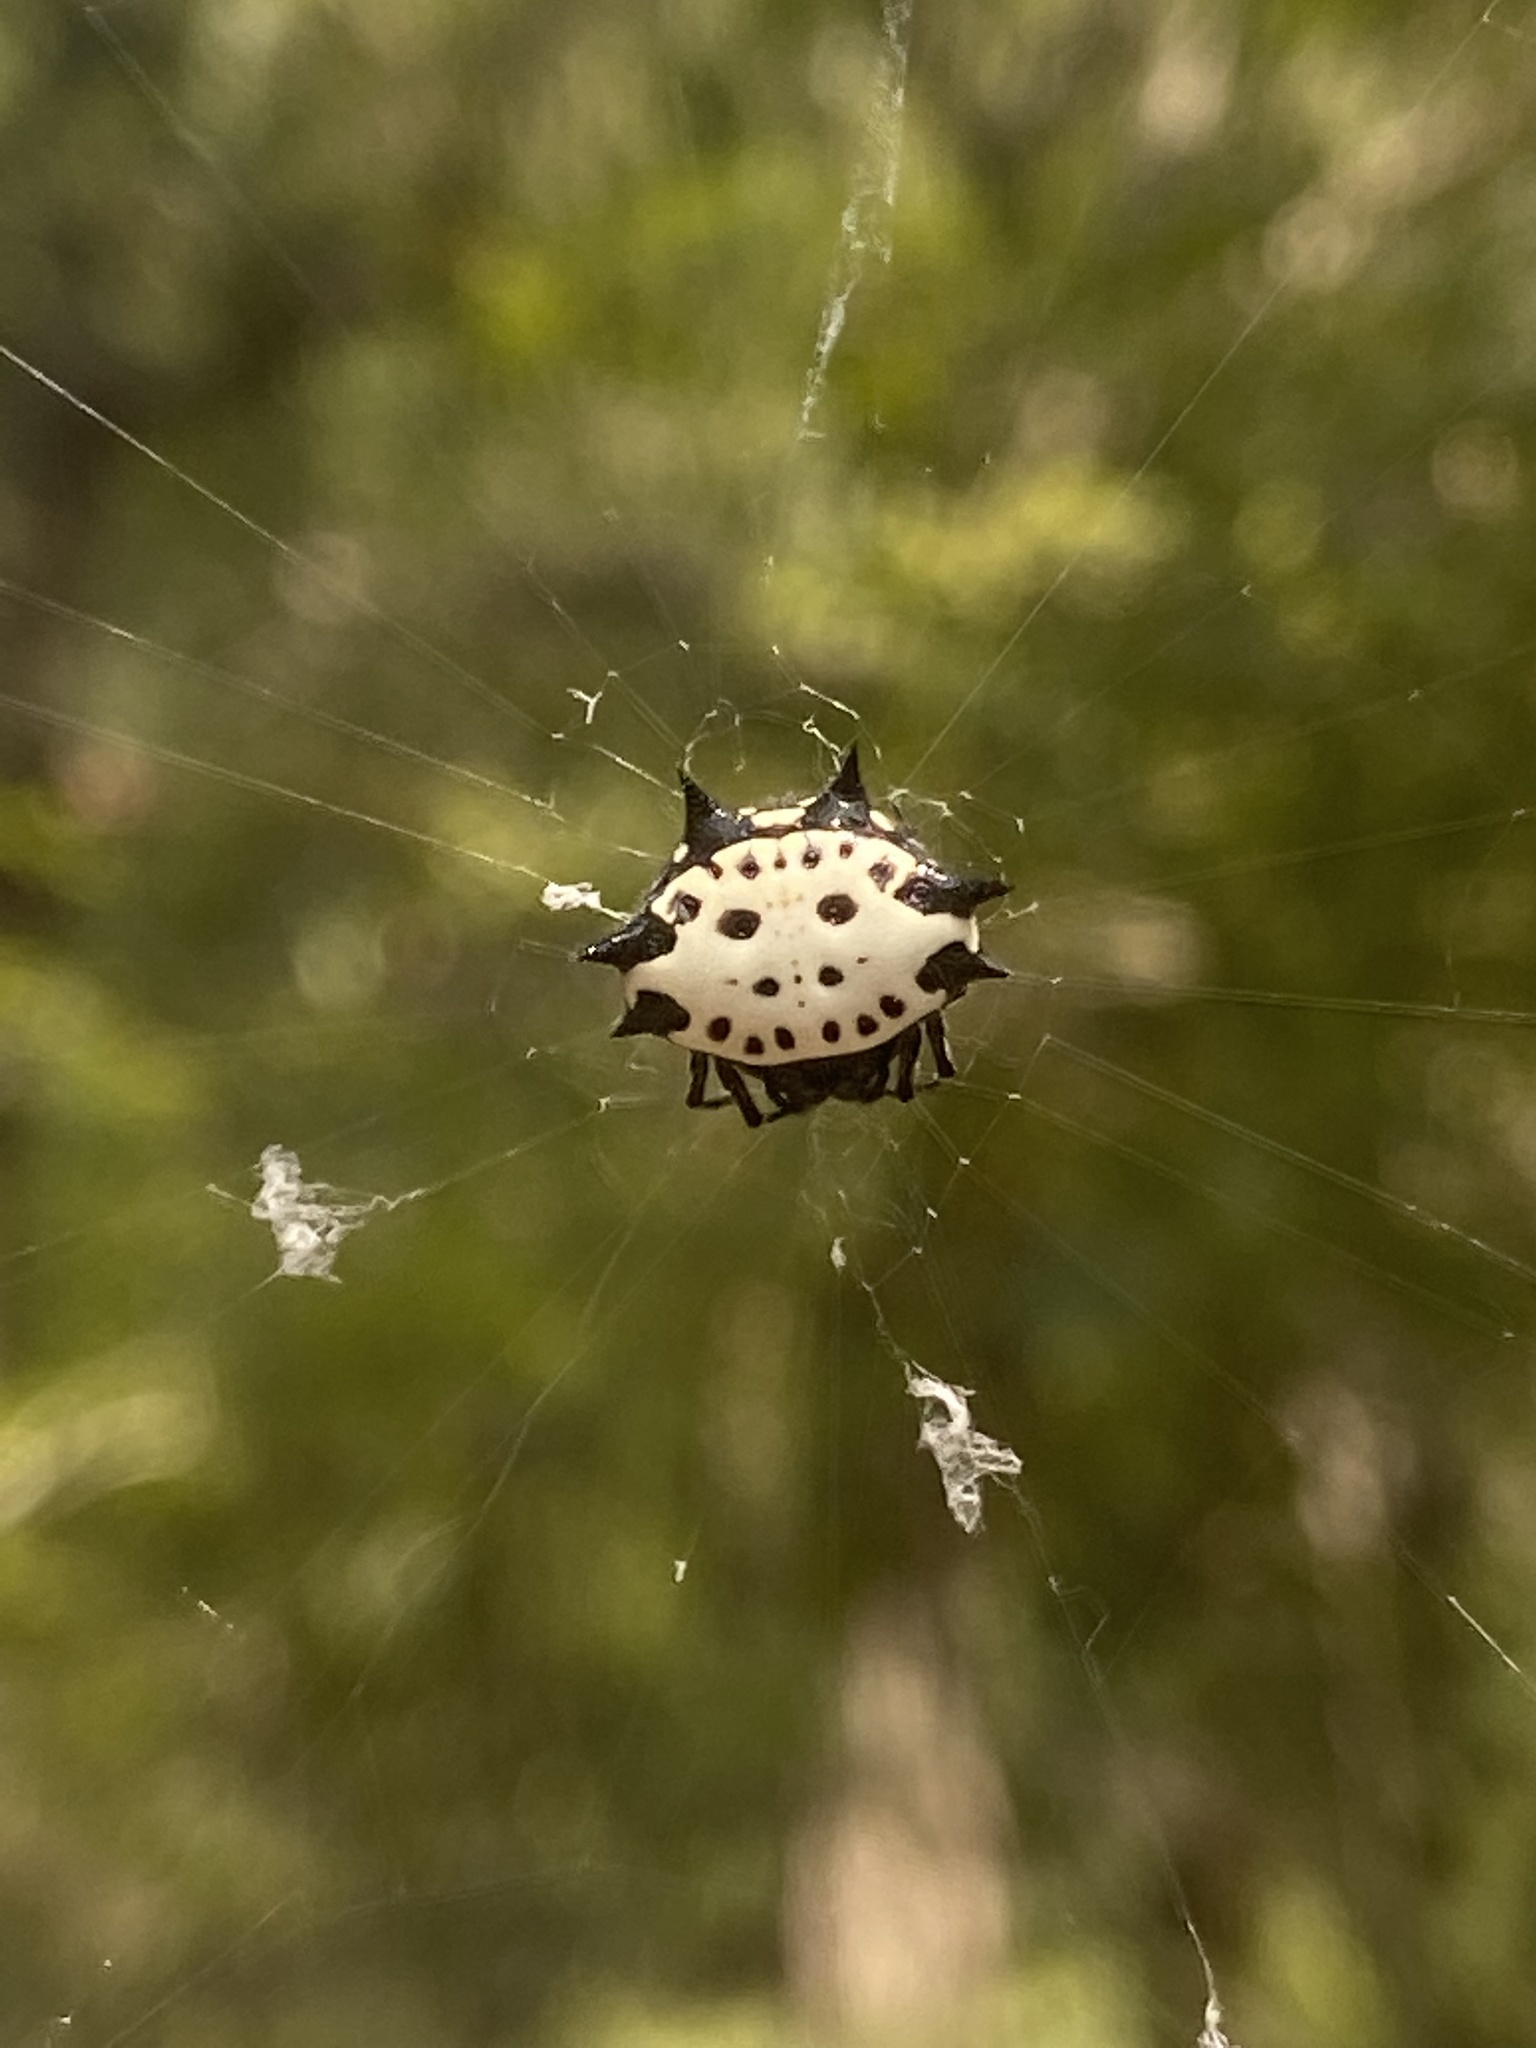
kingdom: Animalia
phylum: Arthropoda
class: Arachnida
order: Araneae
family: Araneidae
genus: Gasteracantha
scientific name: Gasteracantha cancriformis
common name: Orb weavers
